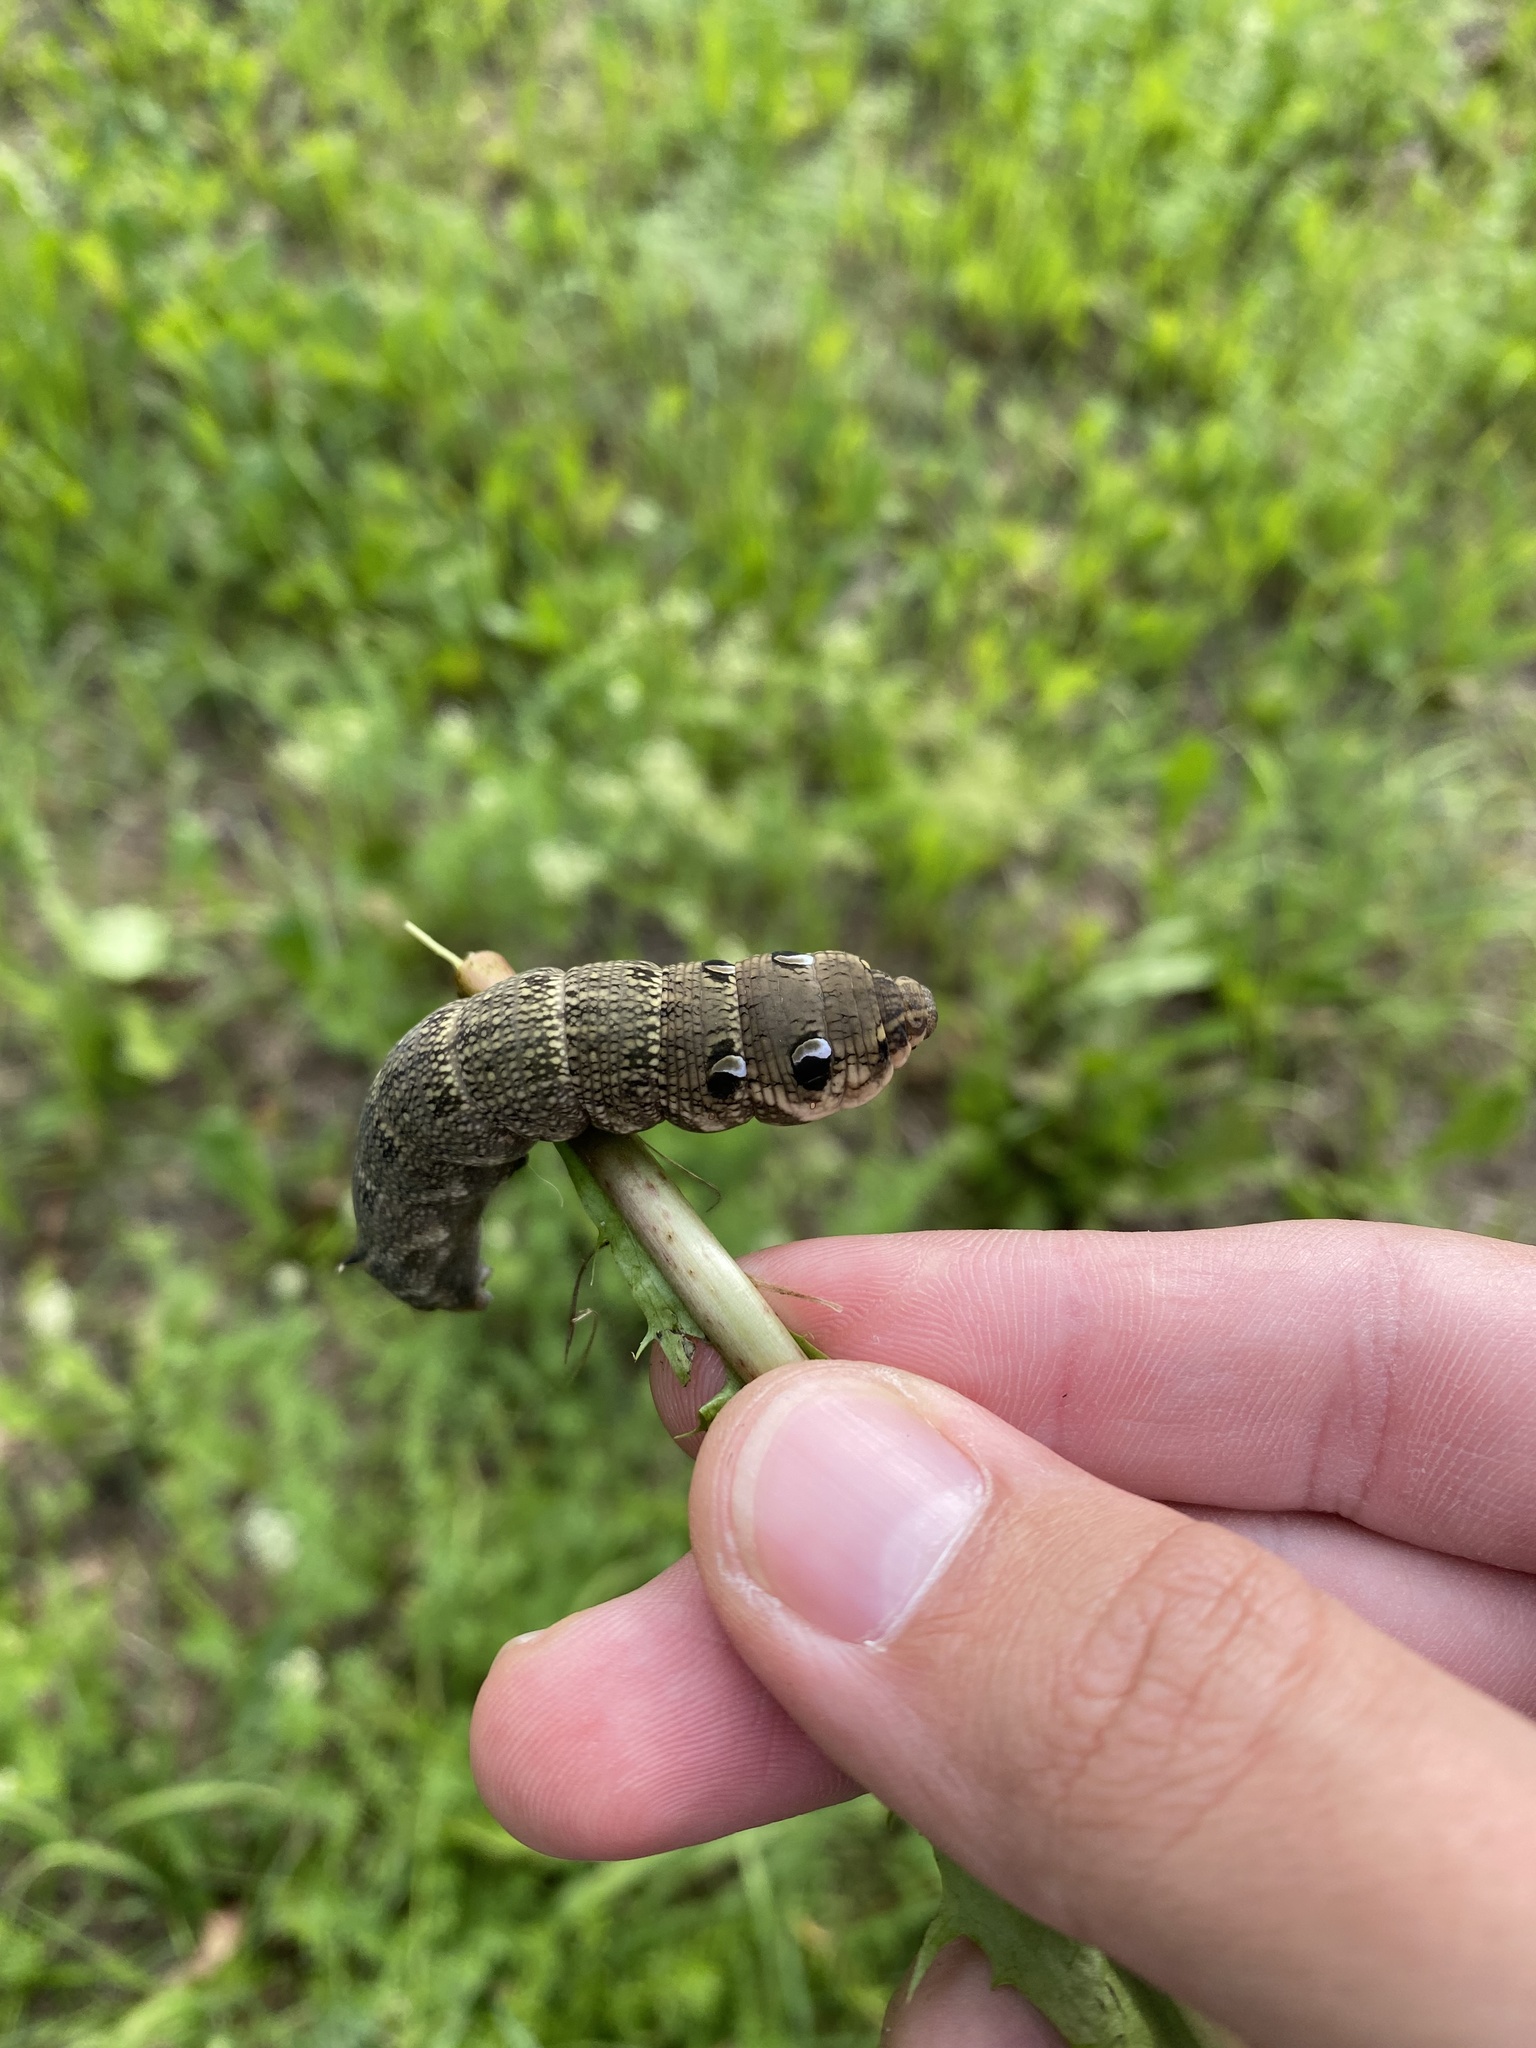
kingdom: Animalia
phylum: Arthropoda
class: Insecta
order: Lepidoptera
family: Sphingidae
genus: Deilephila
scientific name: Deilephila elpenor
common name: Elephant hawk-moth
